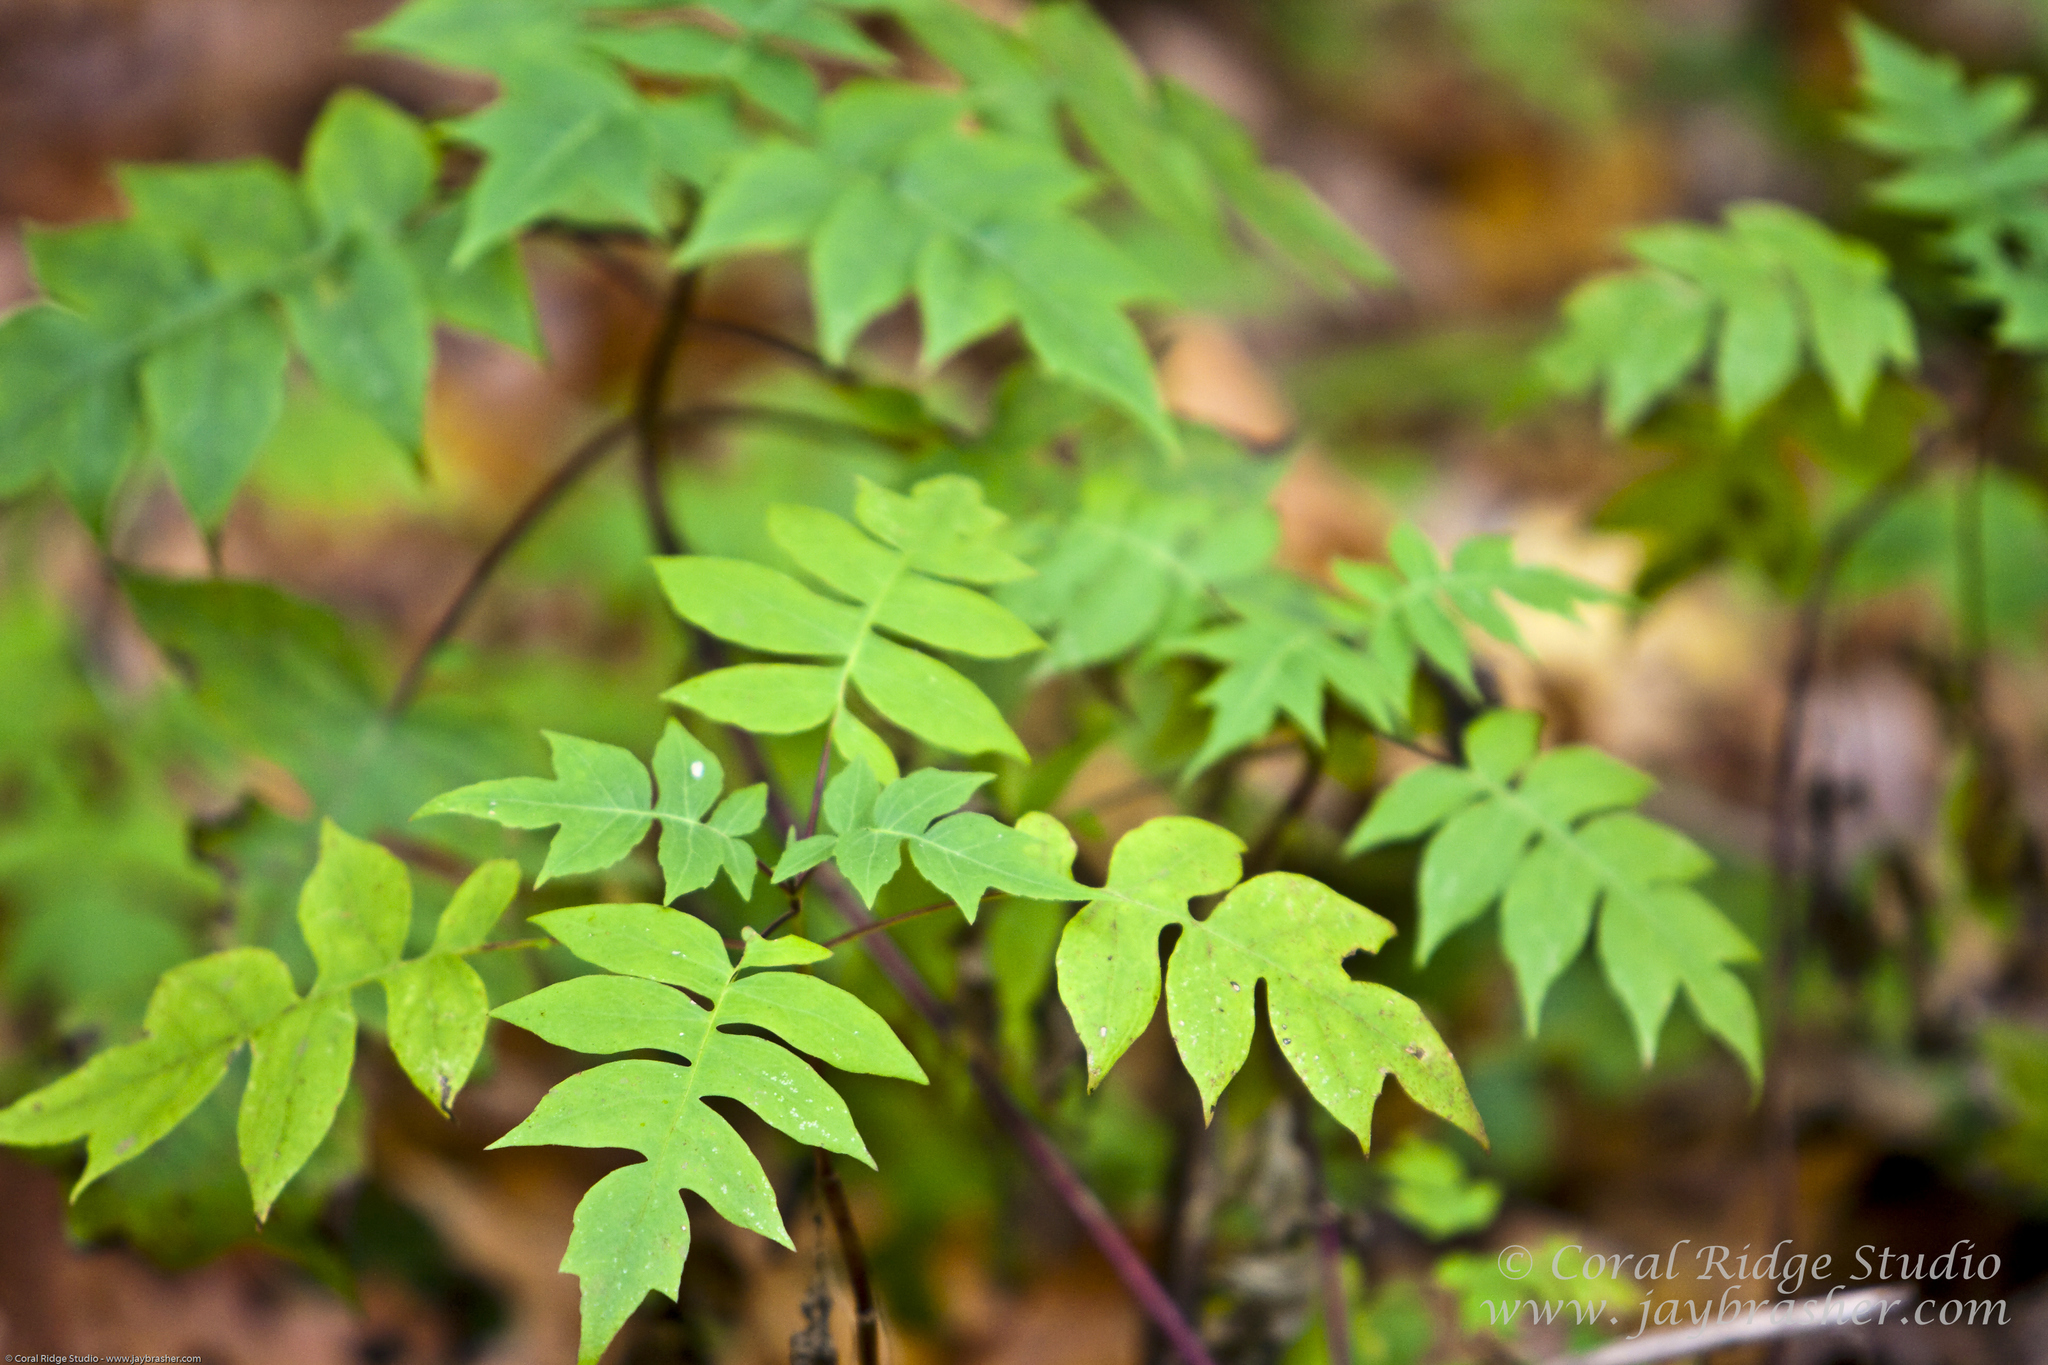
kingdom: Plantae
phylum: Tracheophyta
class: Magnoliopsida
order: Asterales
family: Asteraceae
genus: Polymnia
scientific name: Polymnia laevigata
